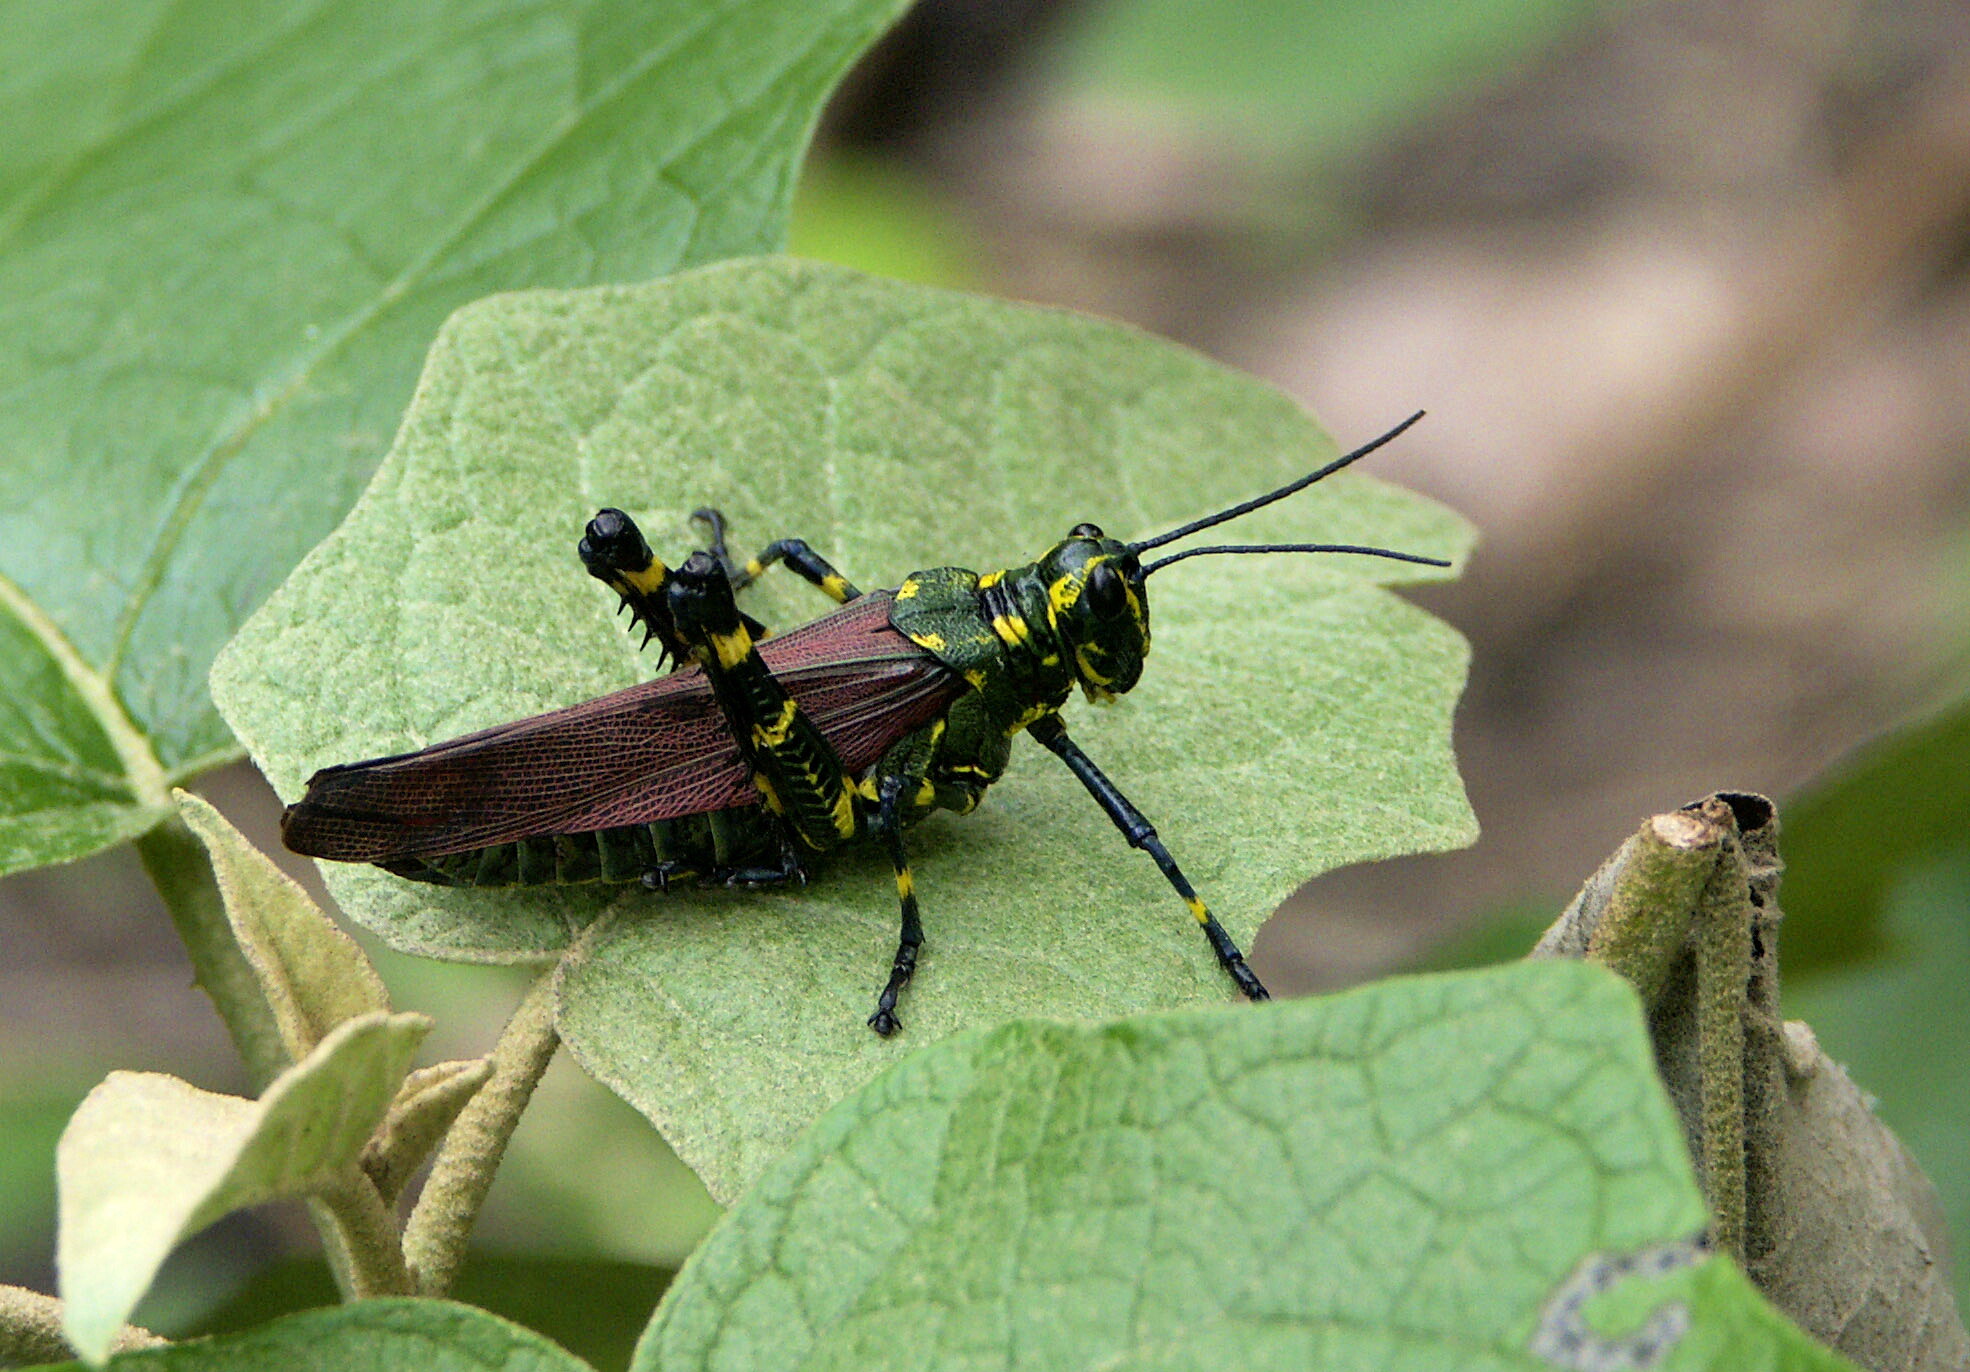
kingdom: Animalia
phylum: Arthropoda
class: Insecta
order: Orthoptera
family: Romaleidae
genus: Chromacris
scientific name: Chromacris speciosa
